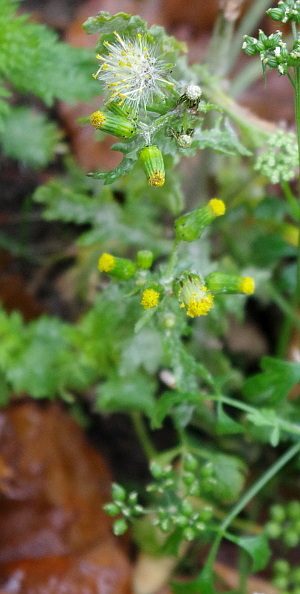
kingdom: Plantae
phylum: Tracheophyta
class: Magnoliopsida
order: Asterales
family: Asteraceae
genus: Senecio
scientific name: Senecio vulgaris
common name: Old-man-in-the-spring
